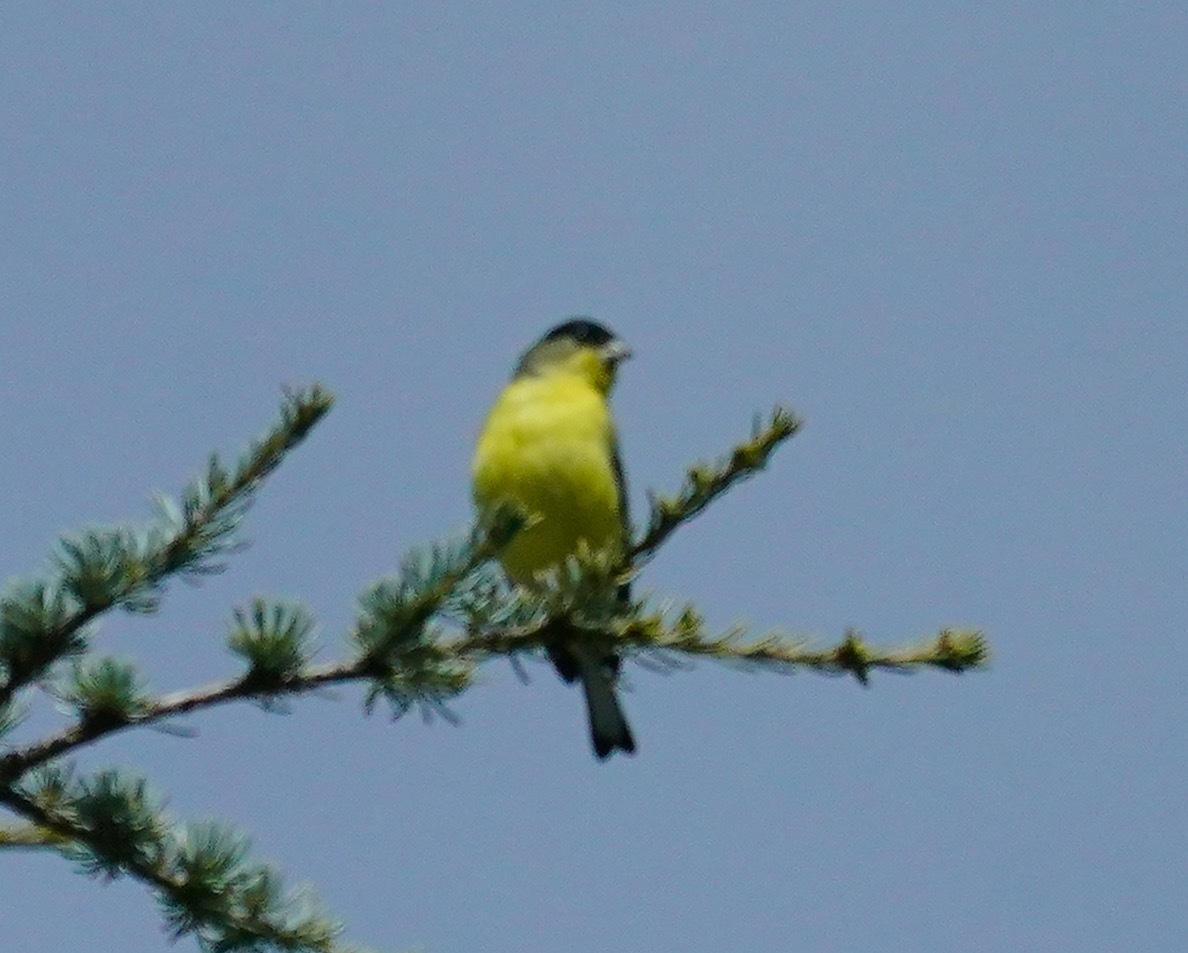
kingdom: Animalia
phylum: Chordata
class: Aves
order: Passeriformes
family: Fringillidae
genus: Spinus
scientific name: Spinus psaltria
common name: Lesser goldfinch
